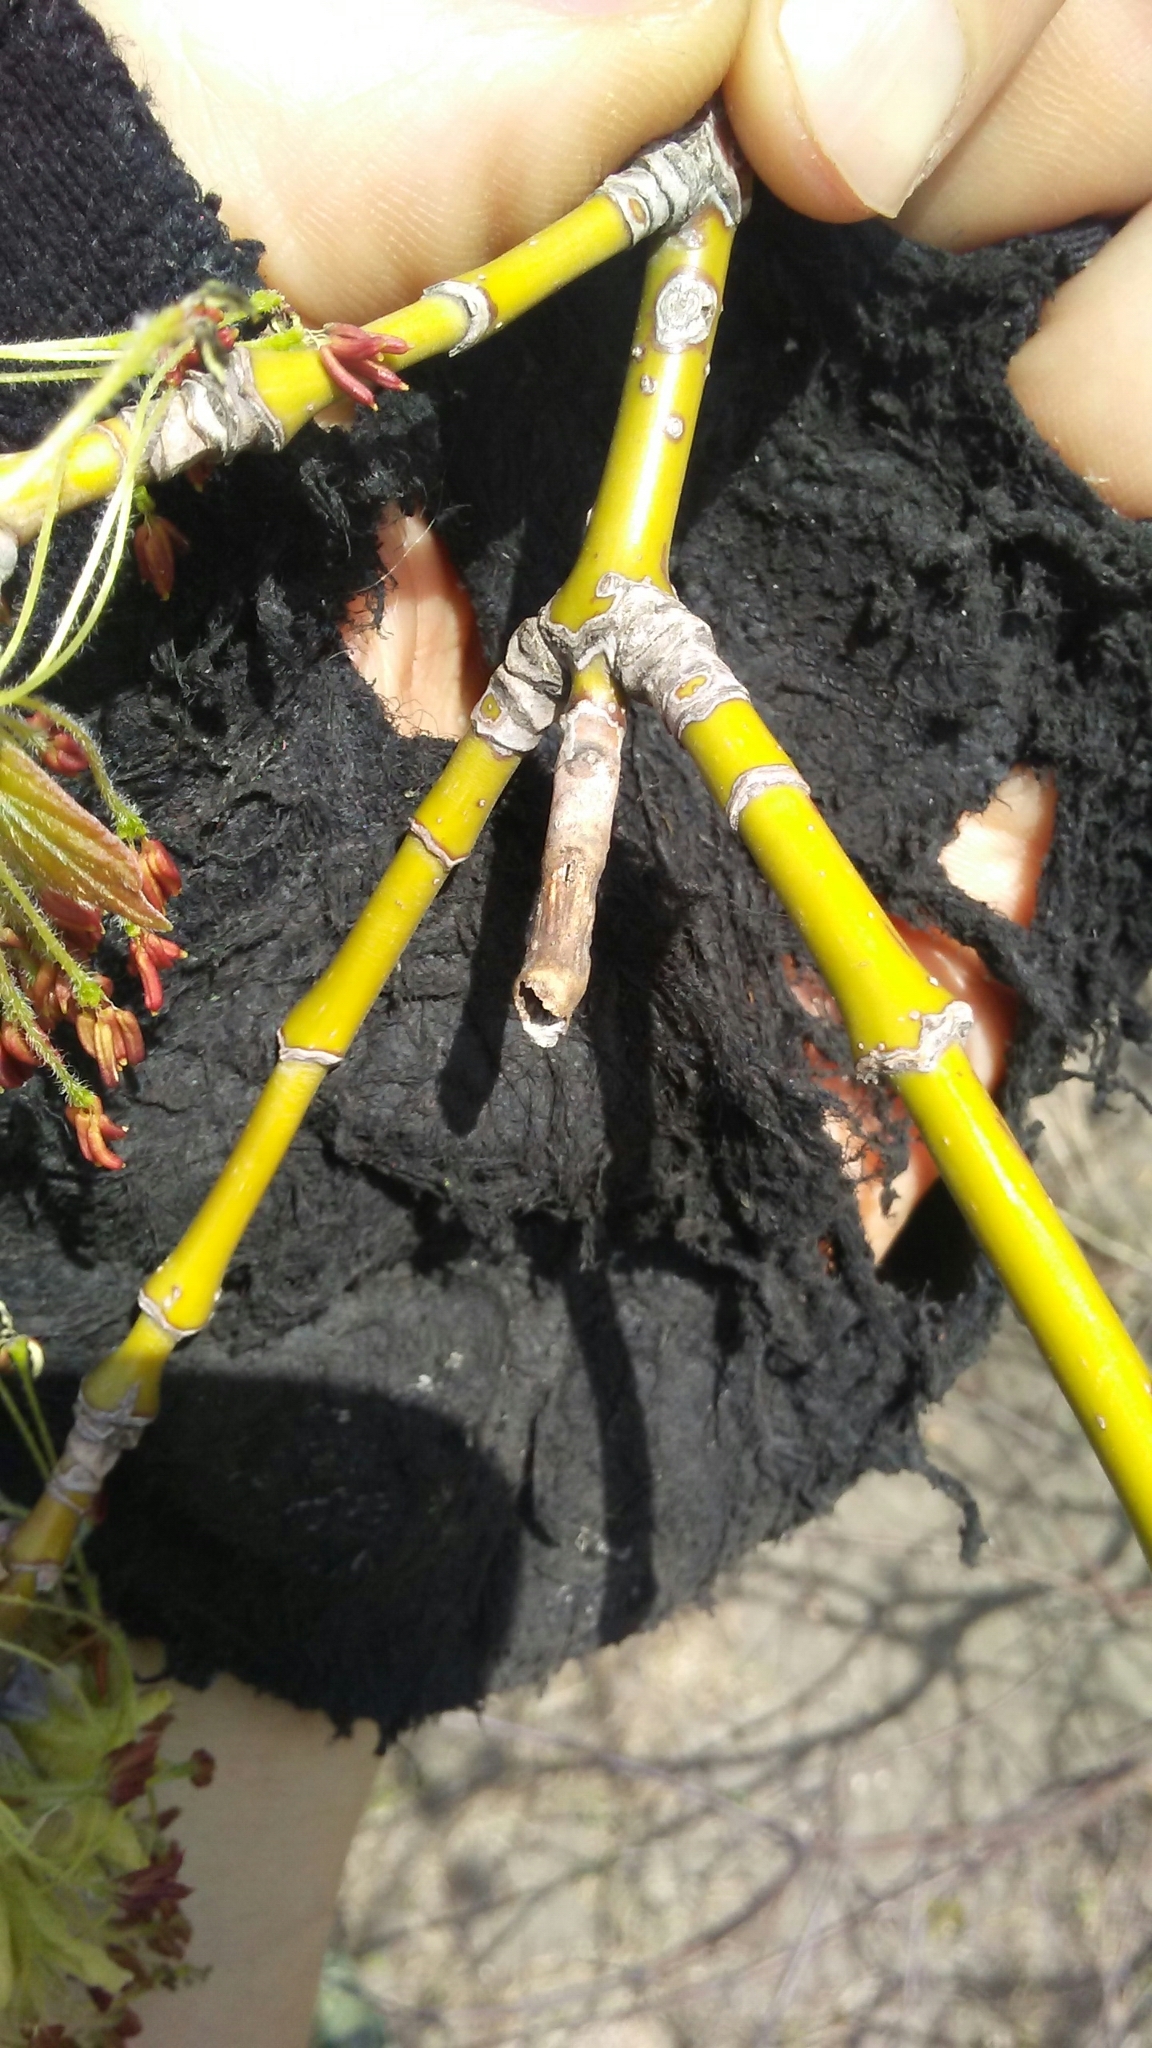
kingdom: Plantae
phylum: Tracheophyta
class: Magnoliopsida
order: Sapindales
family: Sapindaceae
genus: Acer
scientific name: Acer negundo
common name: Ashleaf maple
